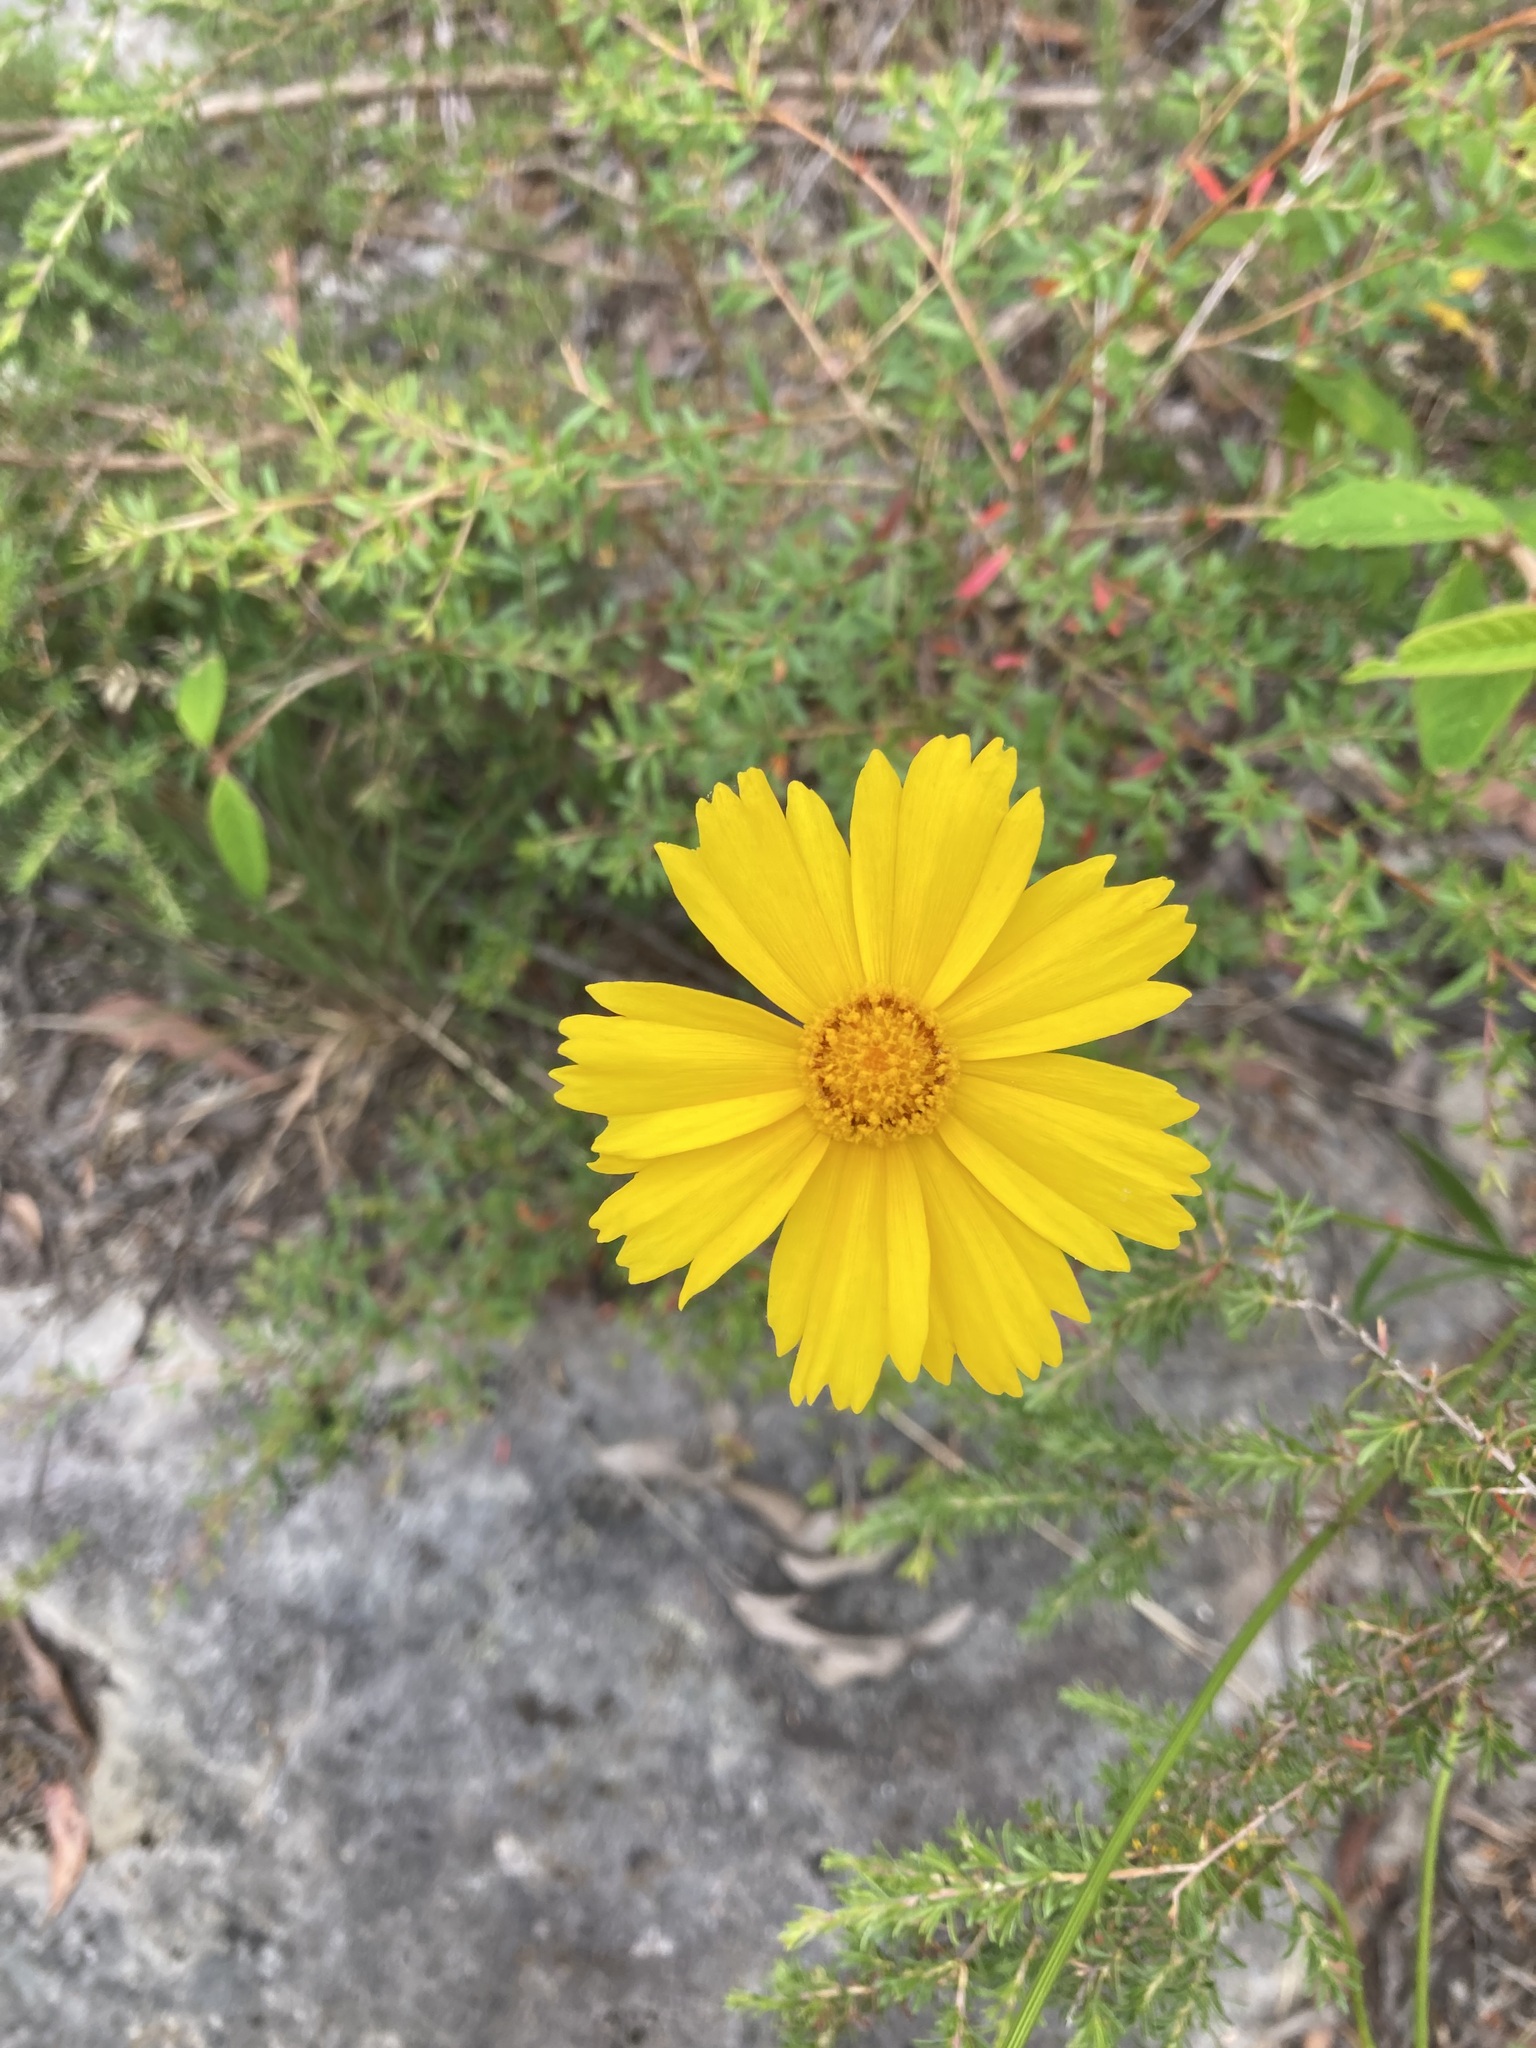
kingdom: Plantae
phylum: Tracheophyta
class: Magnoliopsida
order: Asterales
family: Asteraceae
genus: Coreopsis
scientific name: Coreopsis lanceolata
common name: Garden coreopsis
